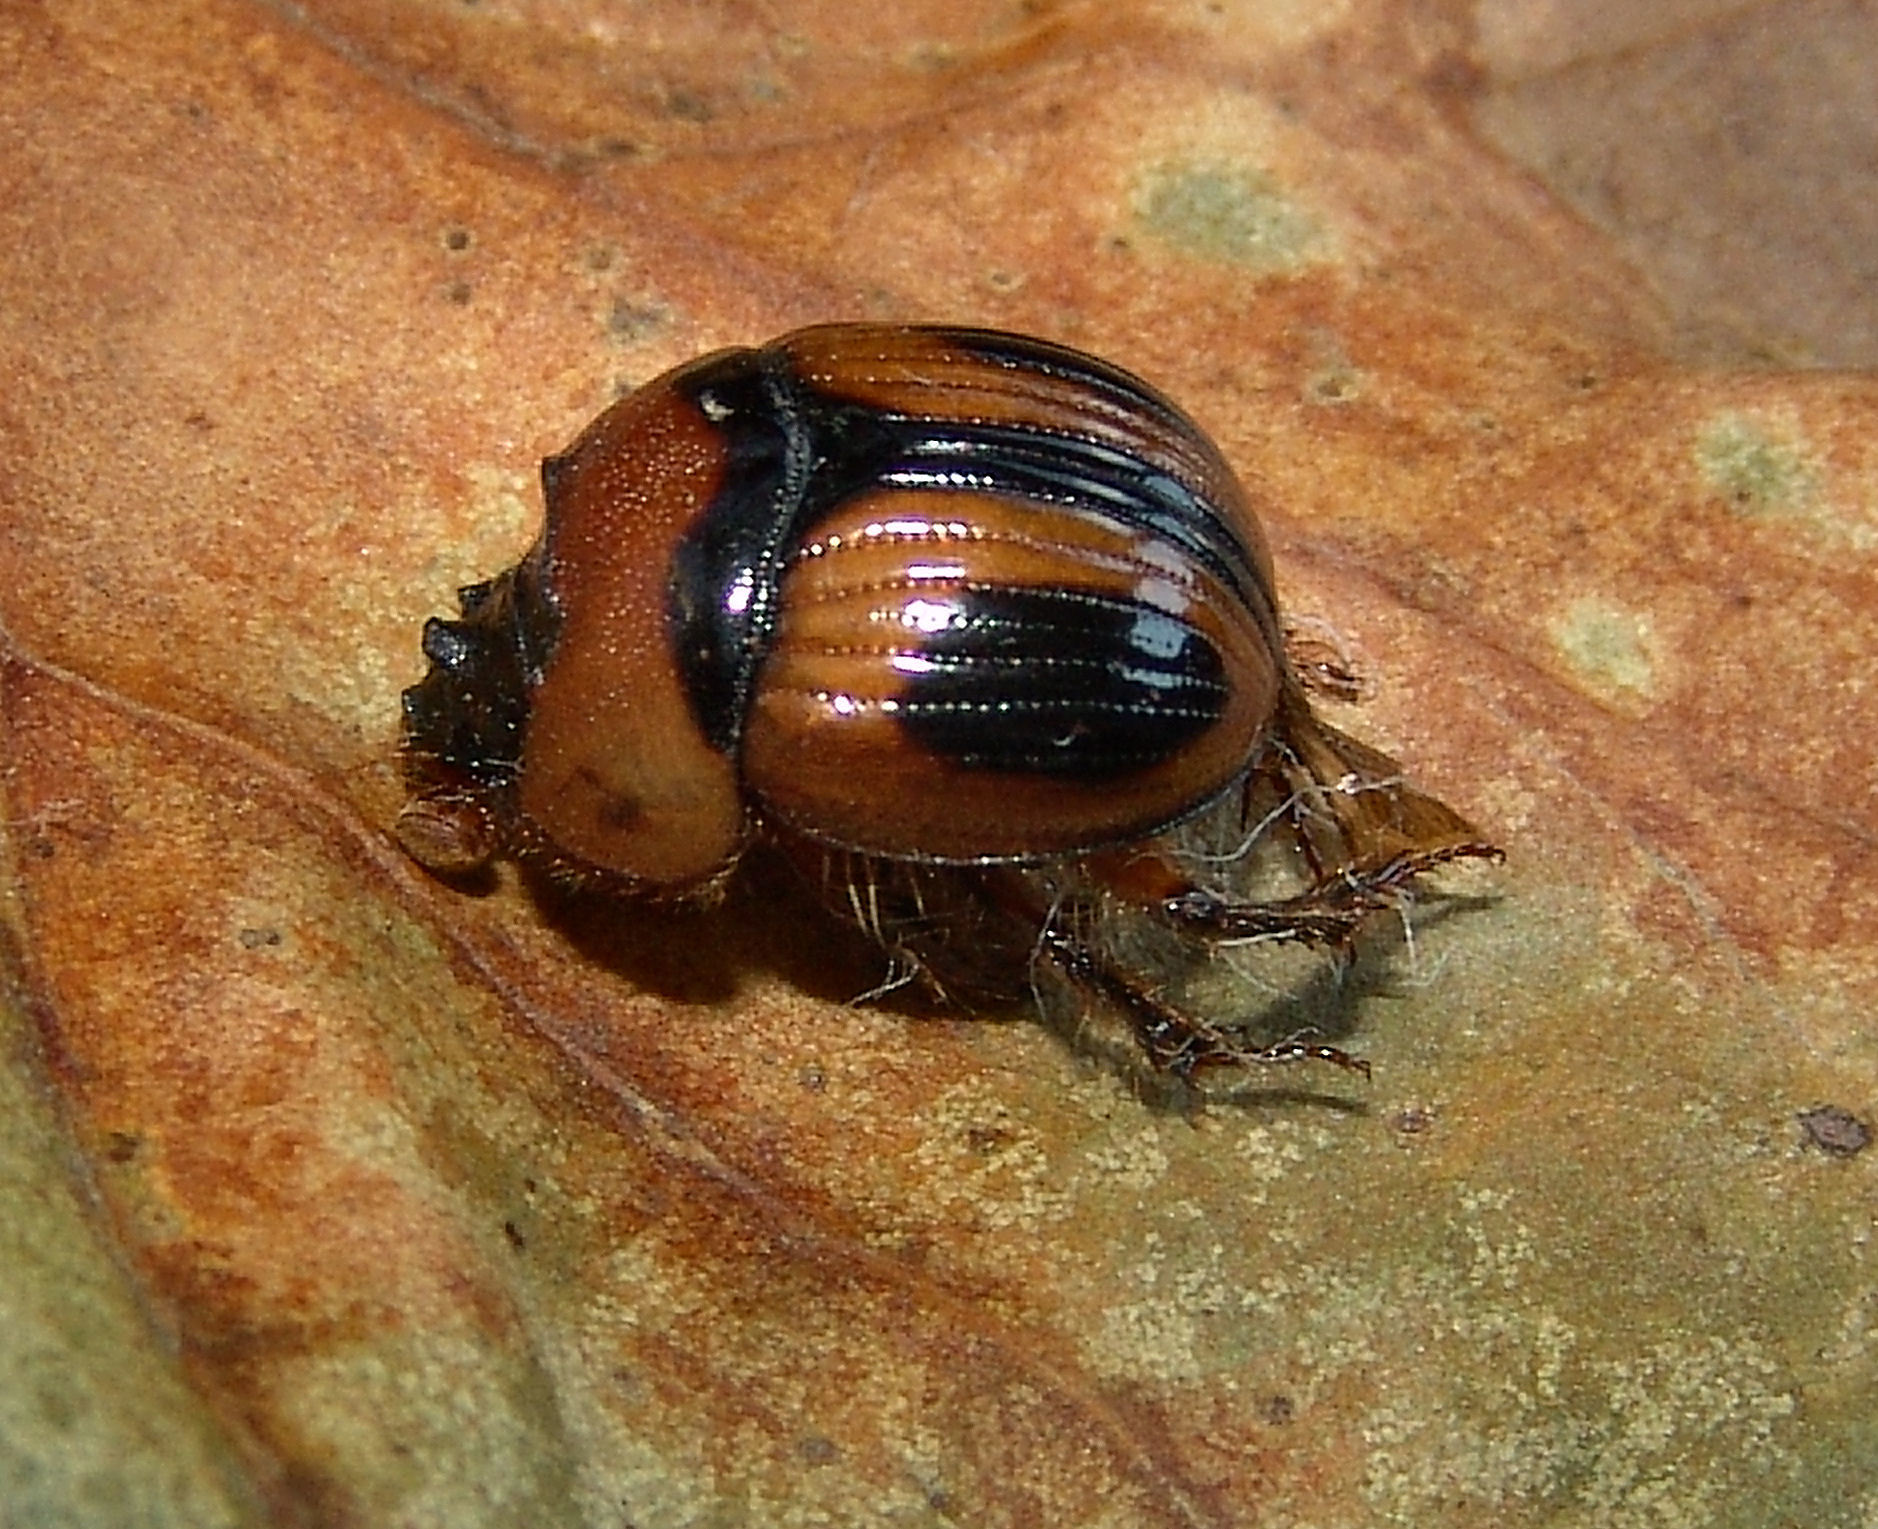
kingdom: Animalia
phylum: Arthropoda
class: Insecta
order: Coleoptera
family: Geotrupidae
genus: Bolbocerosoma
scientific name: Bolbocerosoma confusum
